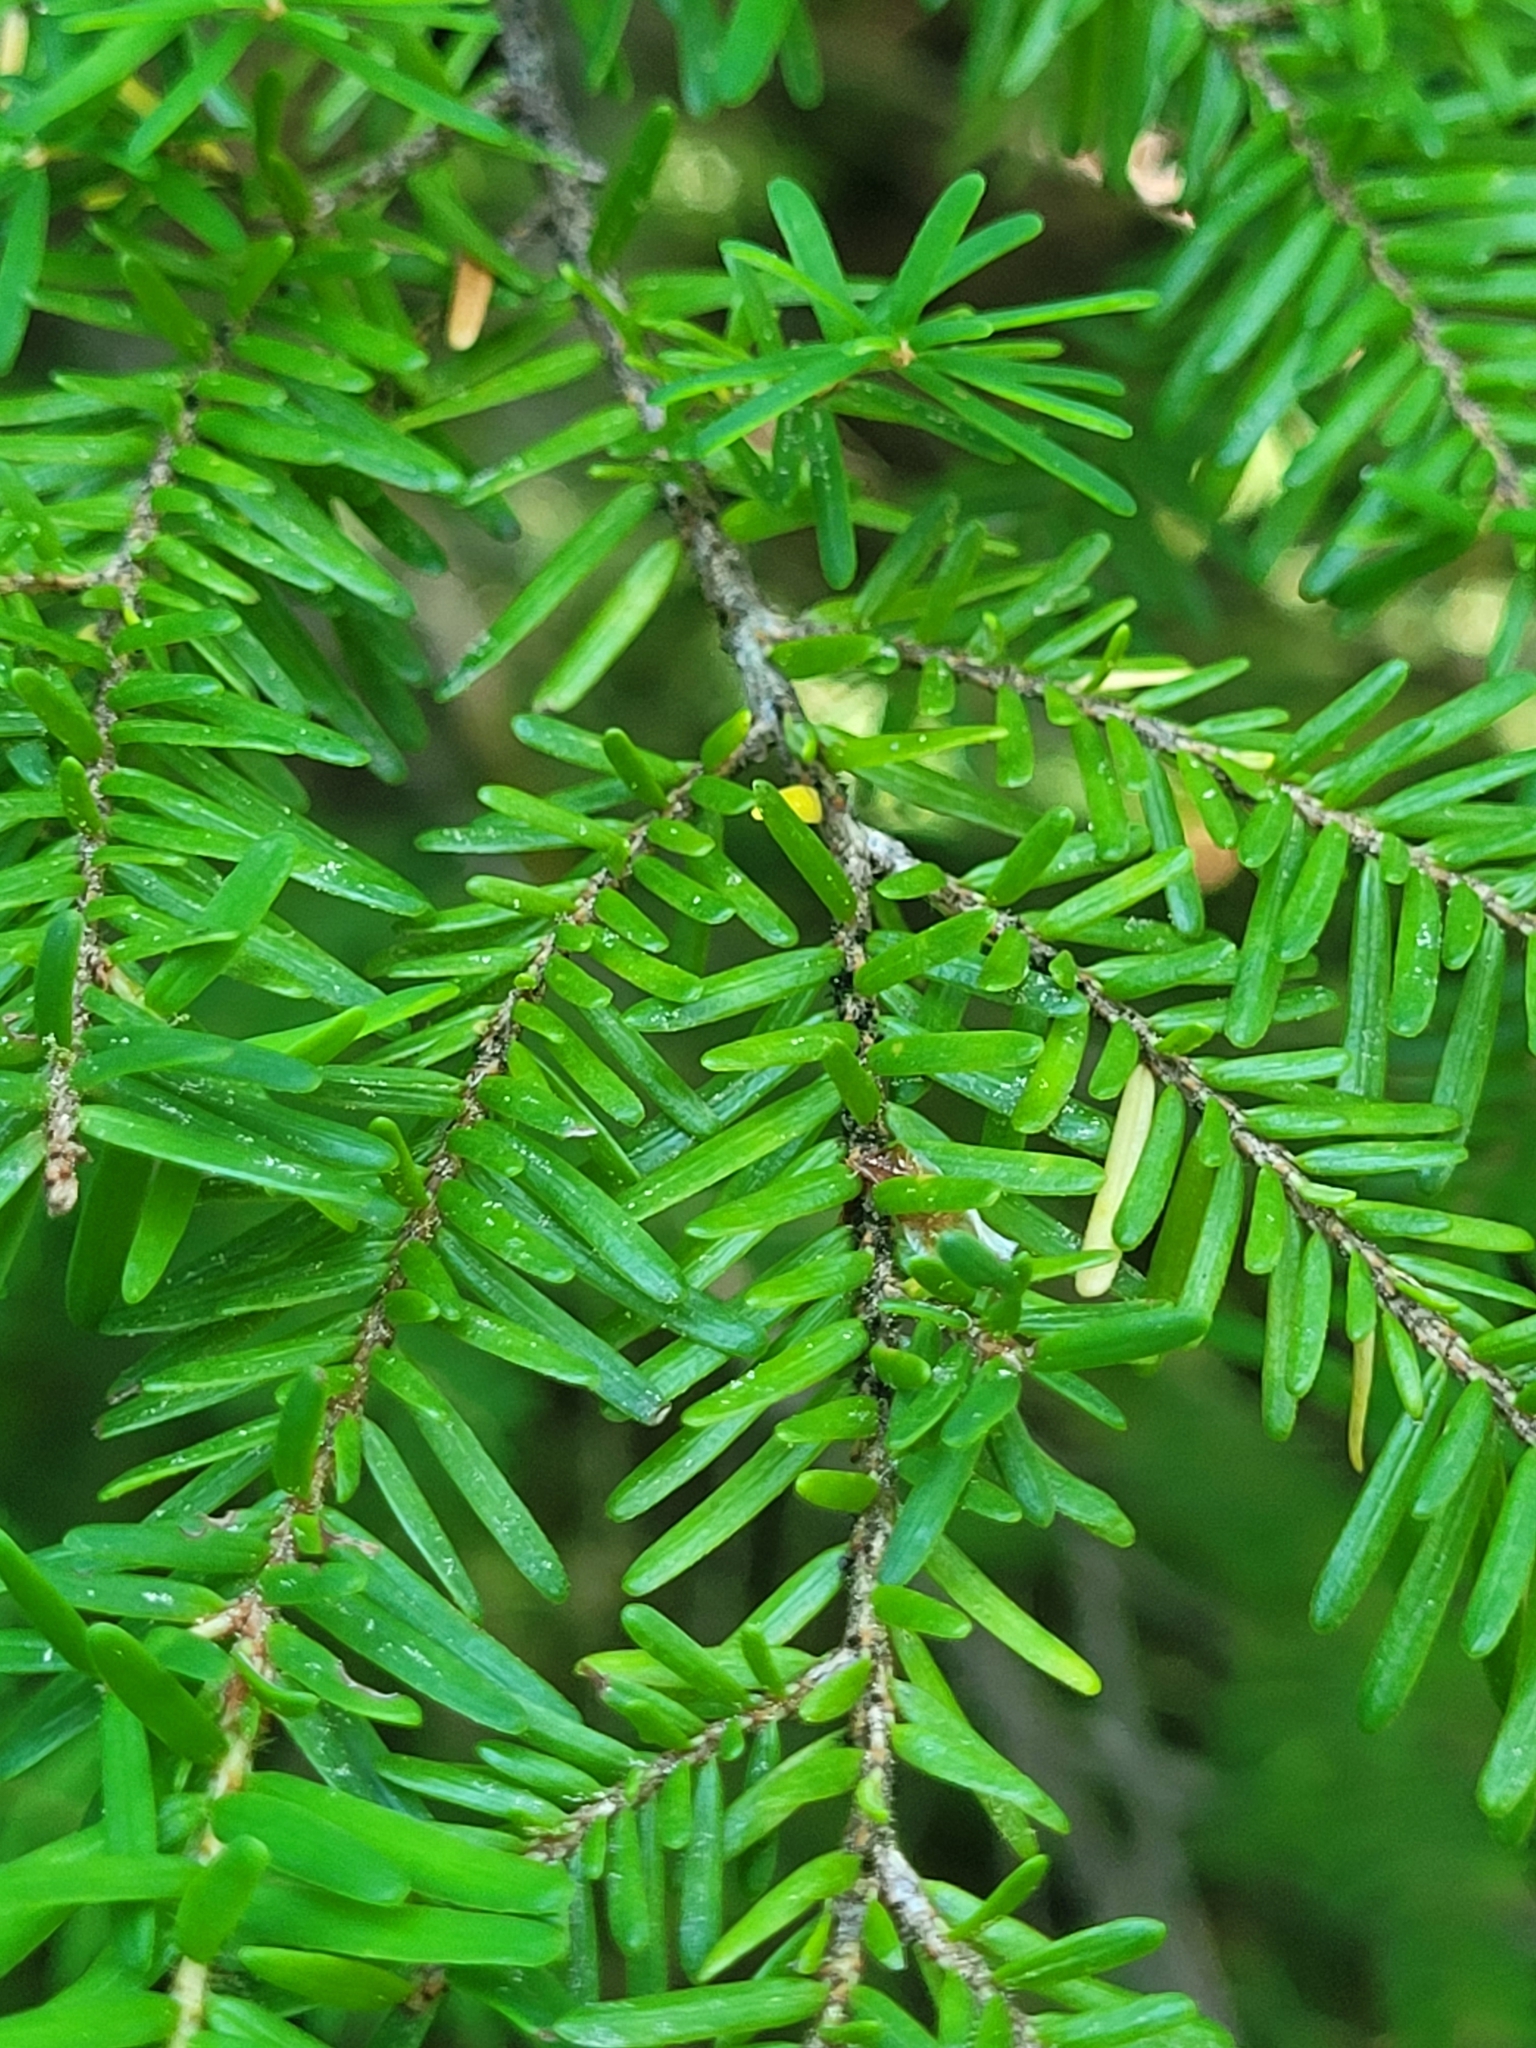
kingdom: Plantae
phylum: Tracheophyta
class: Pinopsida
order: Pinales
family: Pinaceae
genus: Tsuga
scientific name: Tsuga heterophylla
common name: Western hemlock
